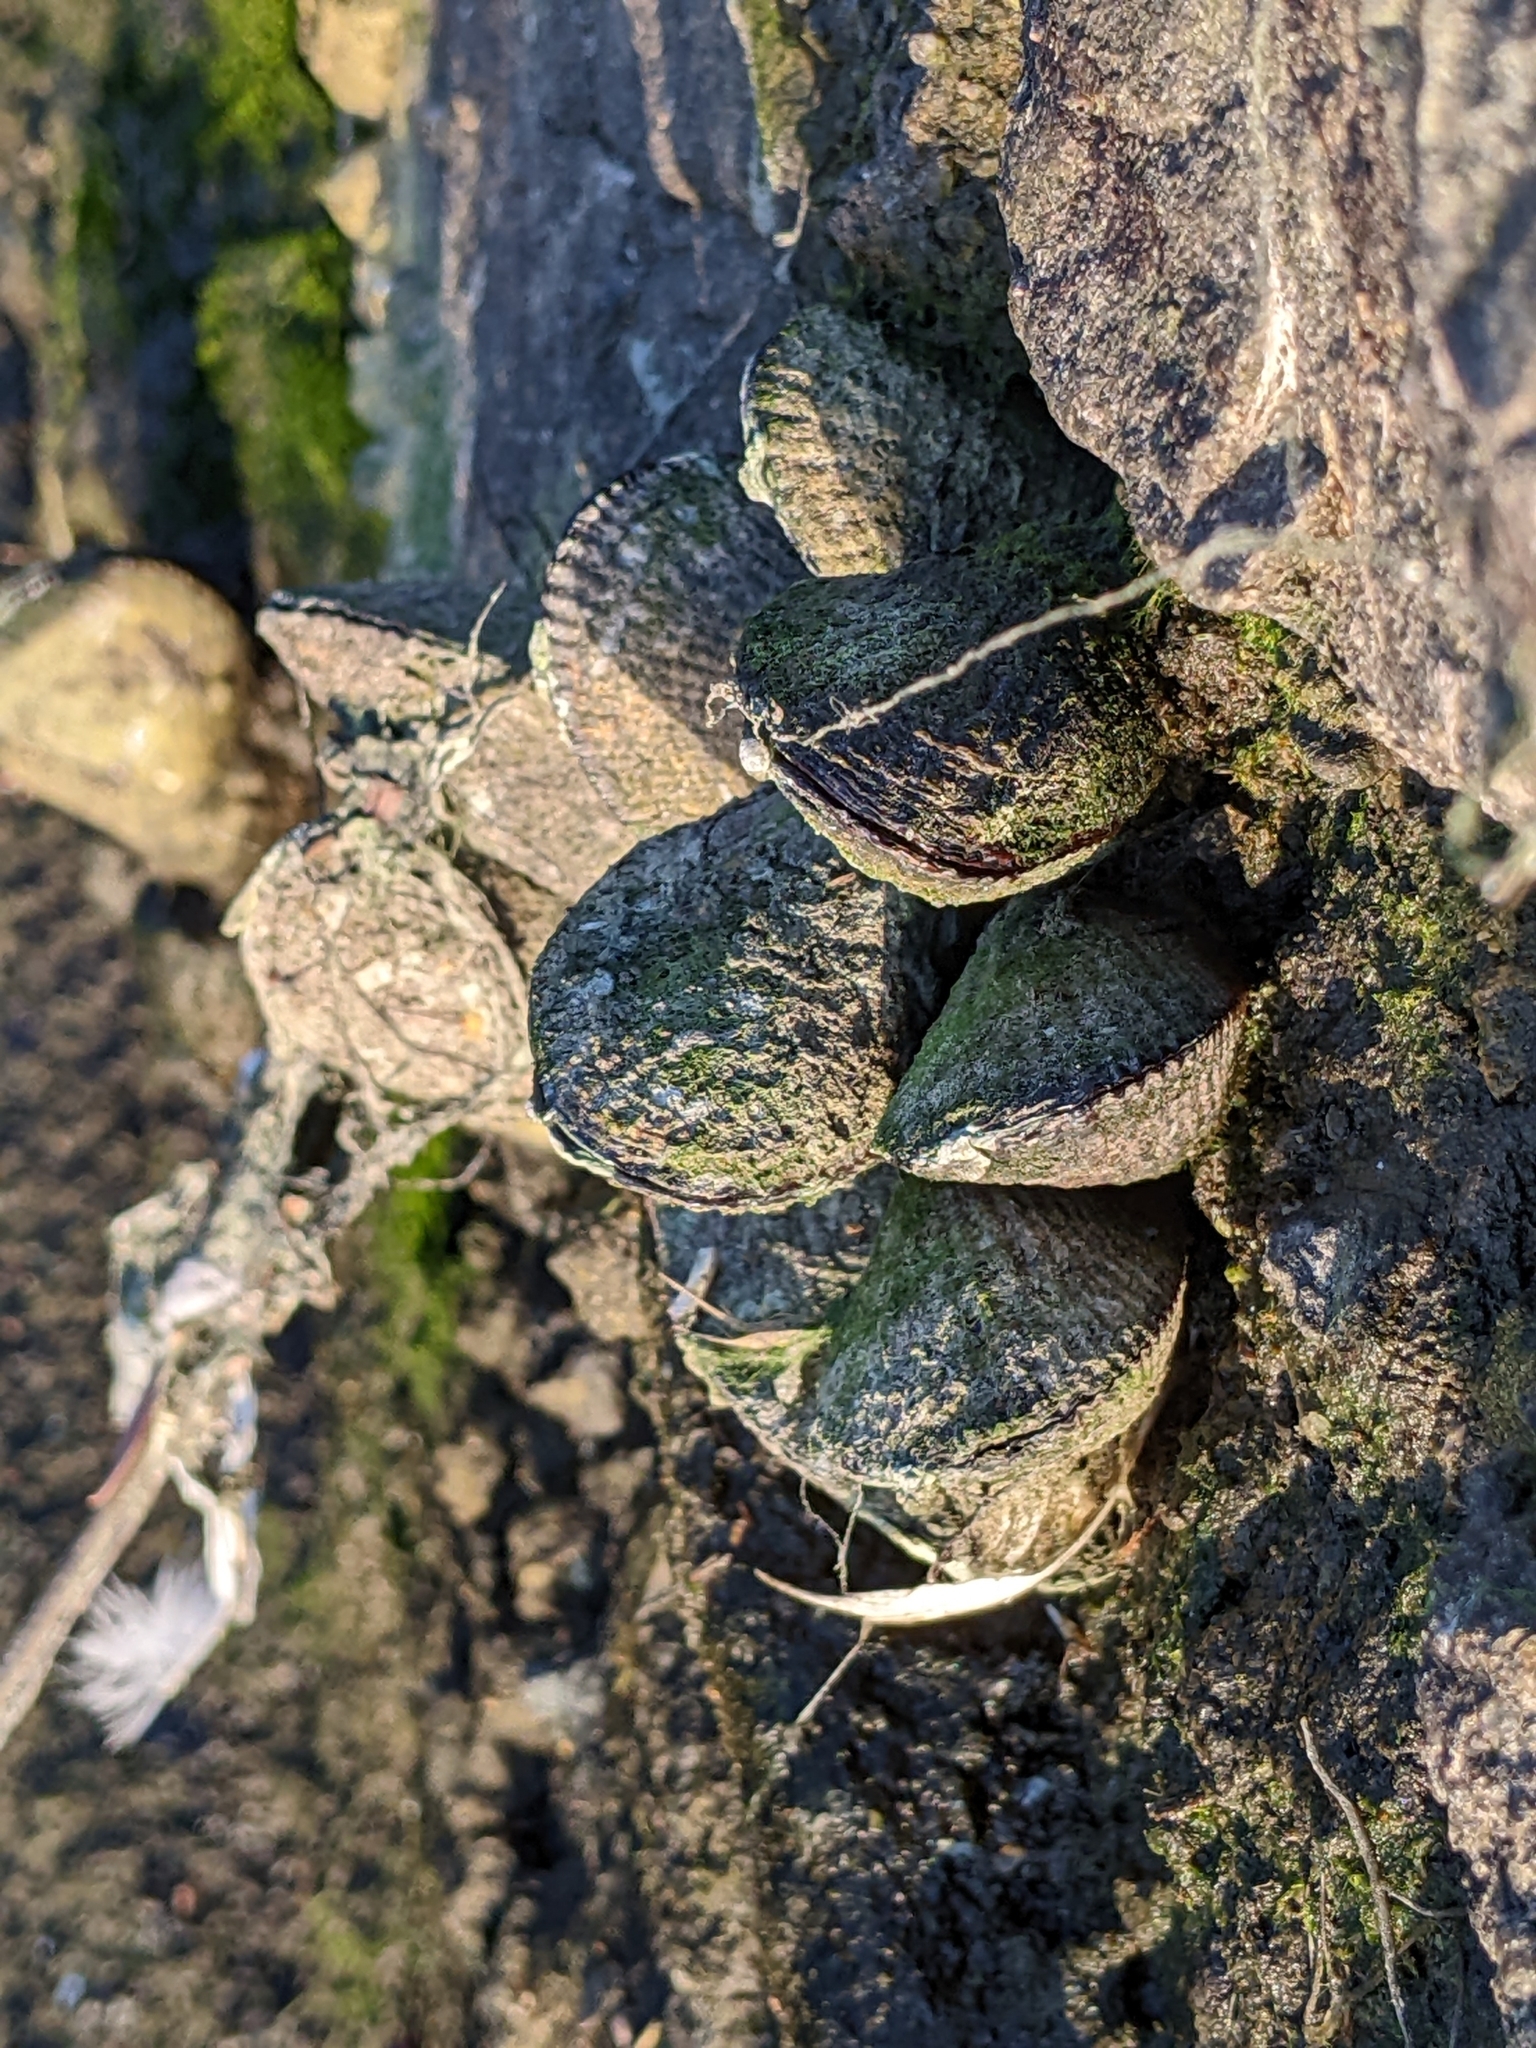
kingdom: Animalia
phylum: Mollusca
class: Bivalvia
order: Mytilida
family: Mytilidae
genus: Geukensia
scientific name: Geukensia demissa
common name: Ribbed mussel
